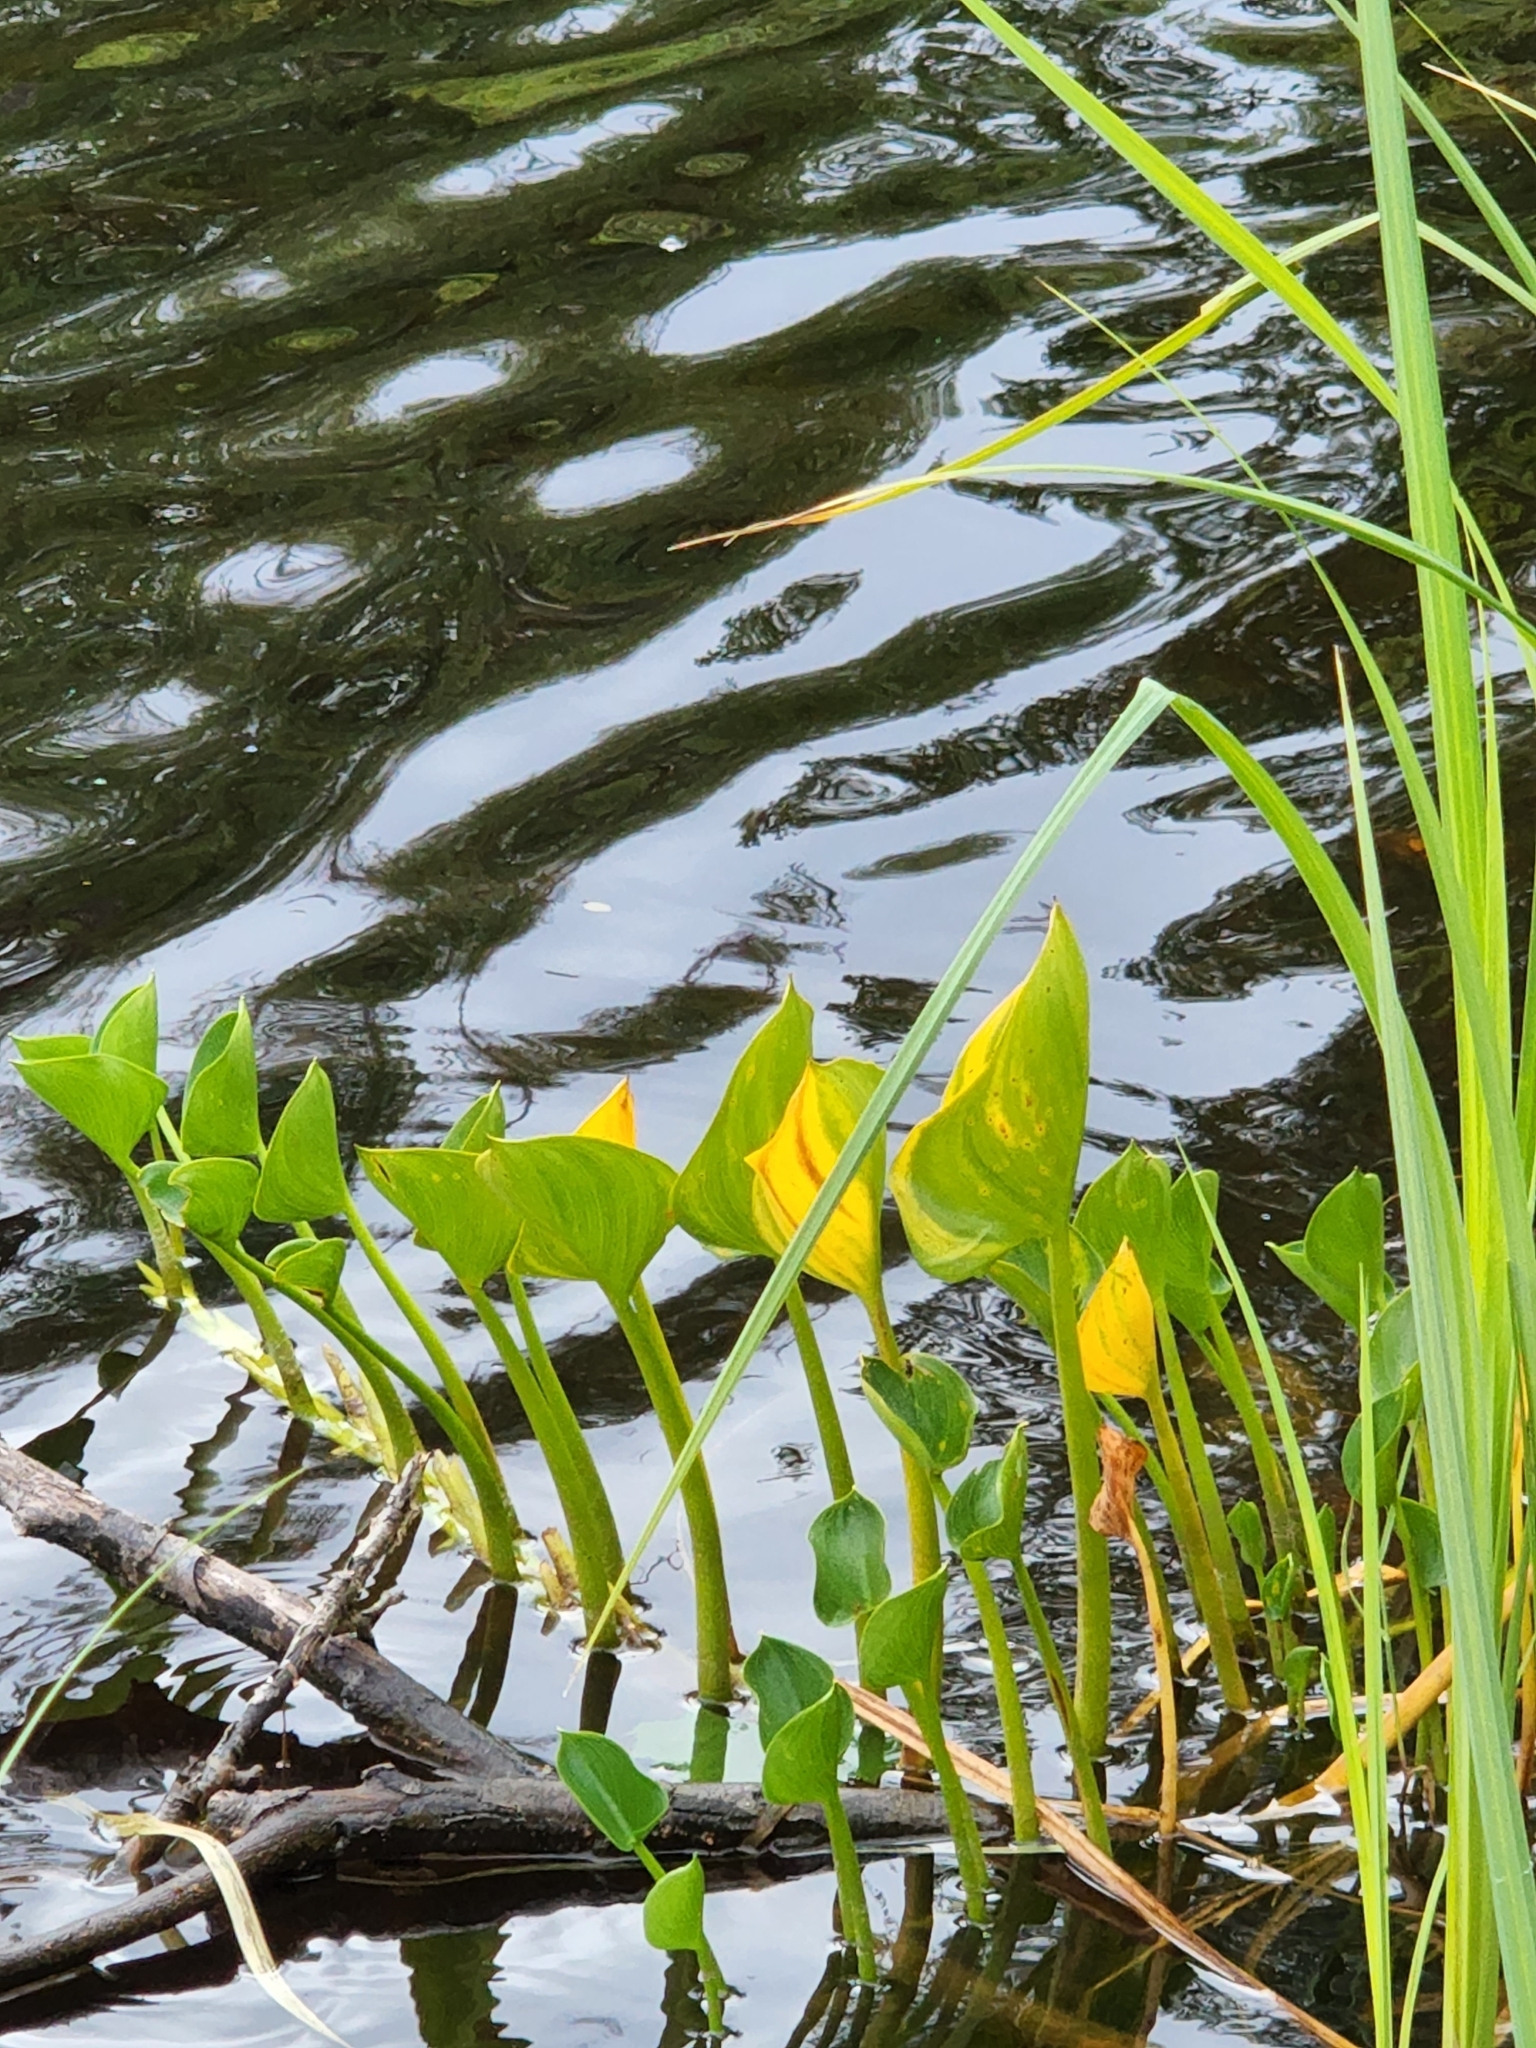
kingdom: Plantae
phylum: Tracheophyta
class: Liliopsida
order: Alismatales
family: Araceae
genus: Calla
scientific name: Calla palustris
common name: Bog arum
